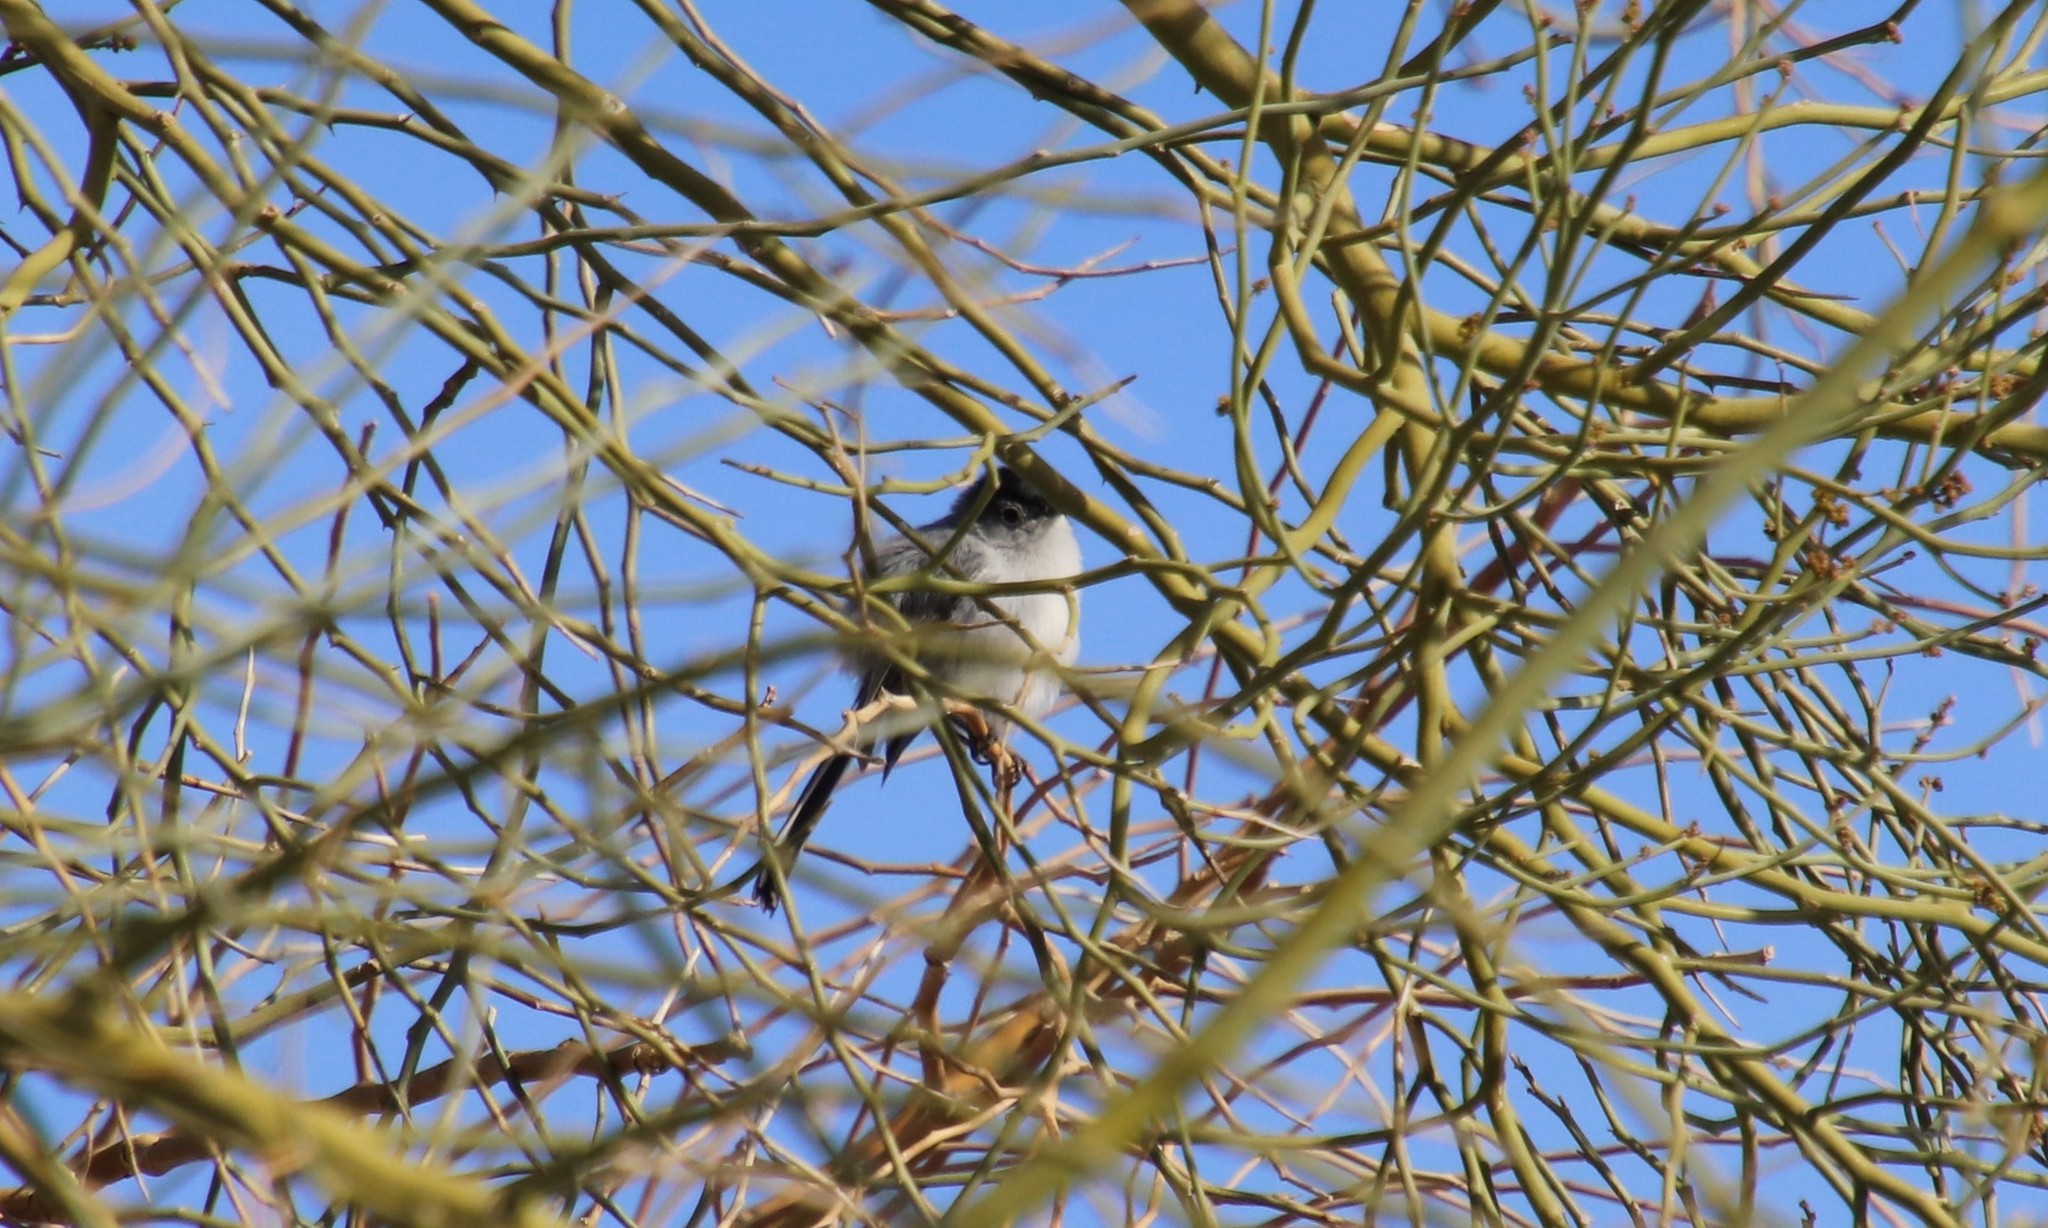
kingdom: Animalia
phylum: Chordata
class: Aves
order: Passeriformes
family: Polioptilidae
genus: Polioptila
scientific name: Polioptila melanura
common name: Black-tailed gnatcatcher
